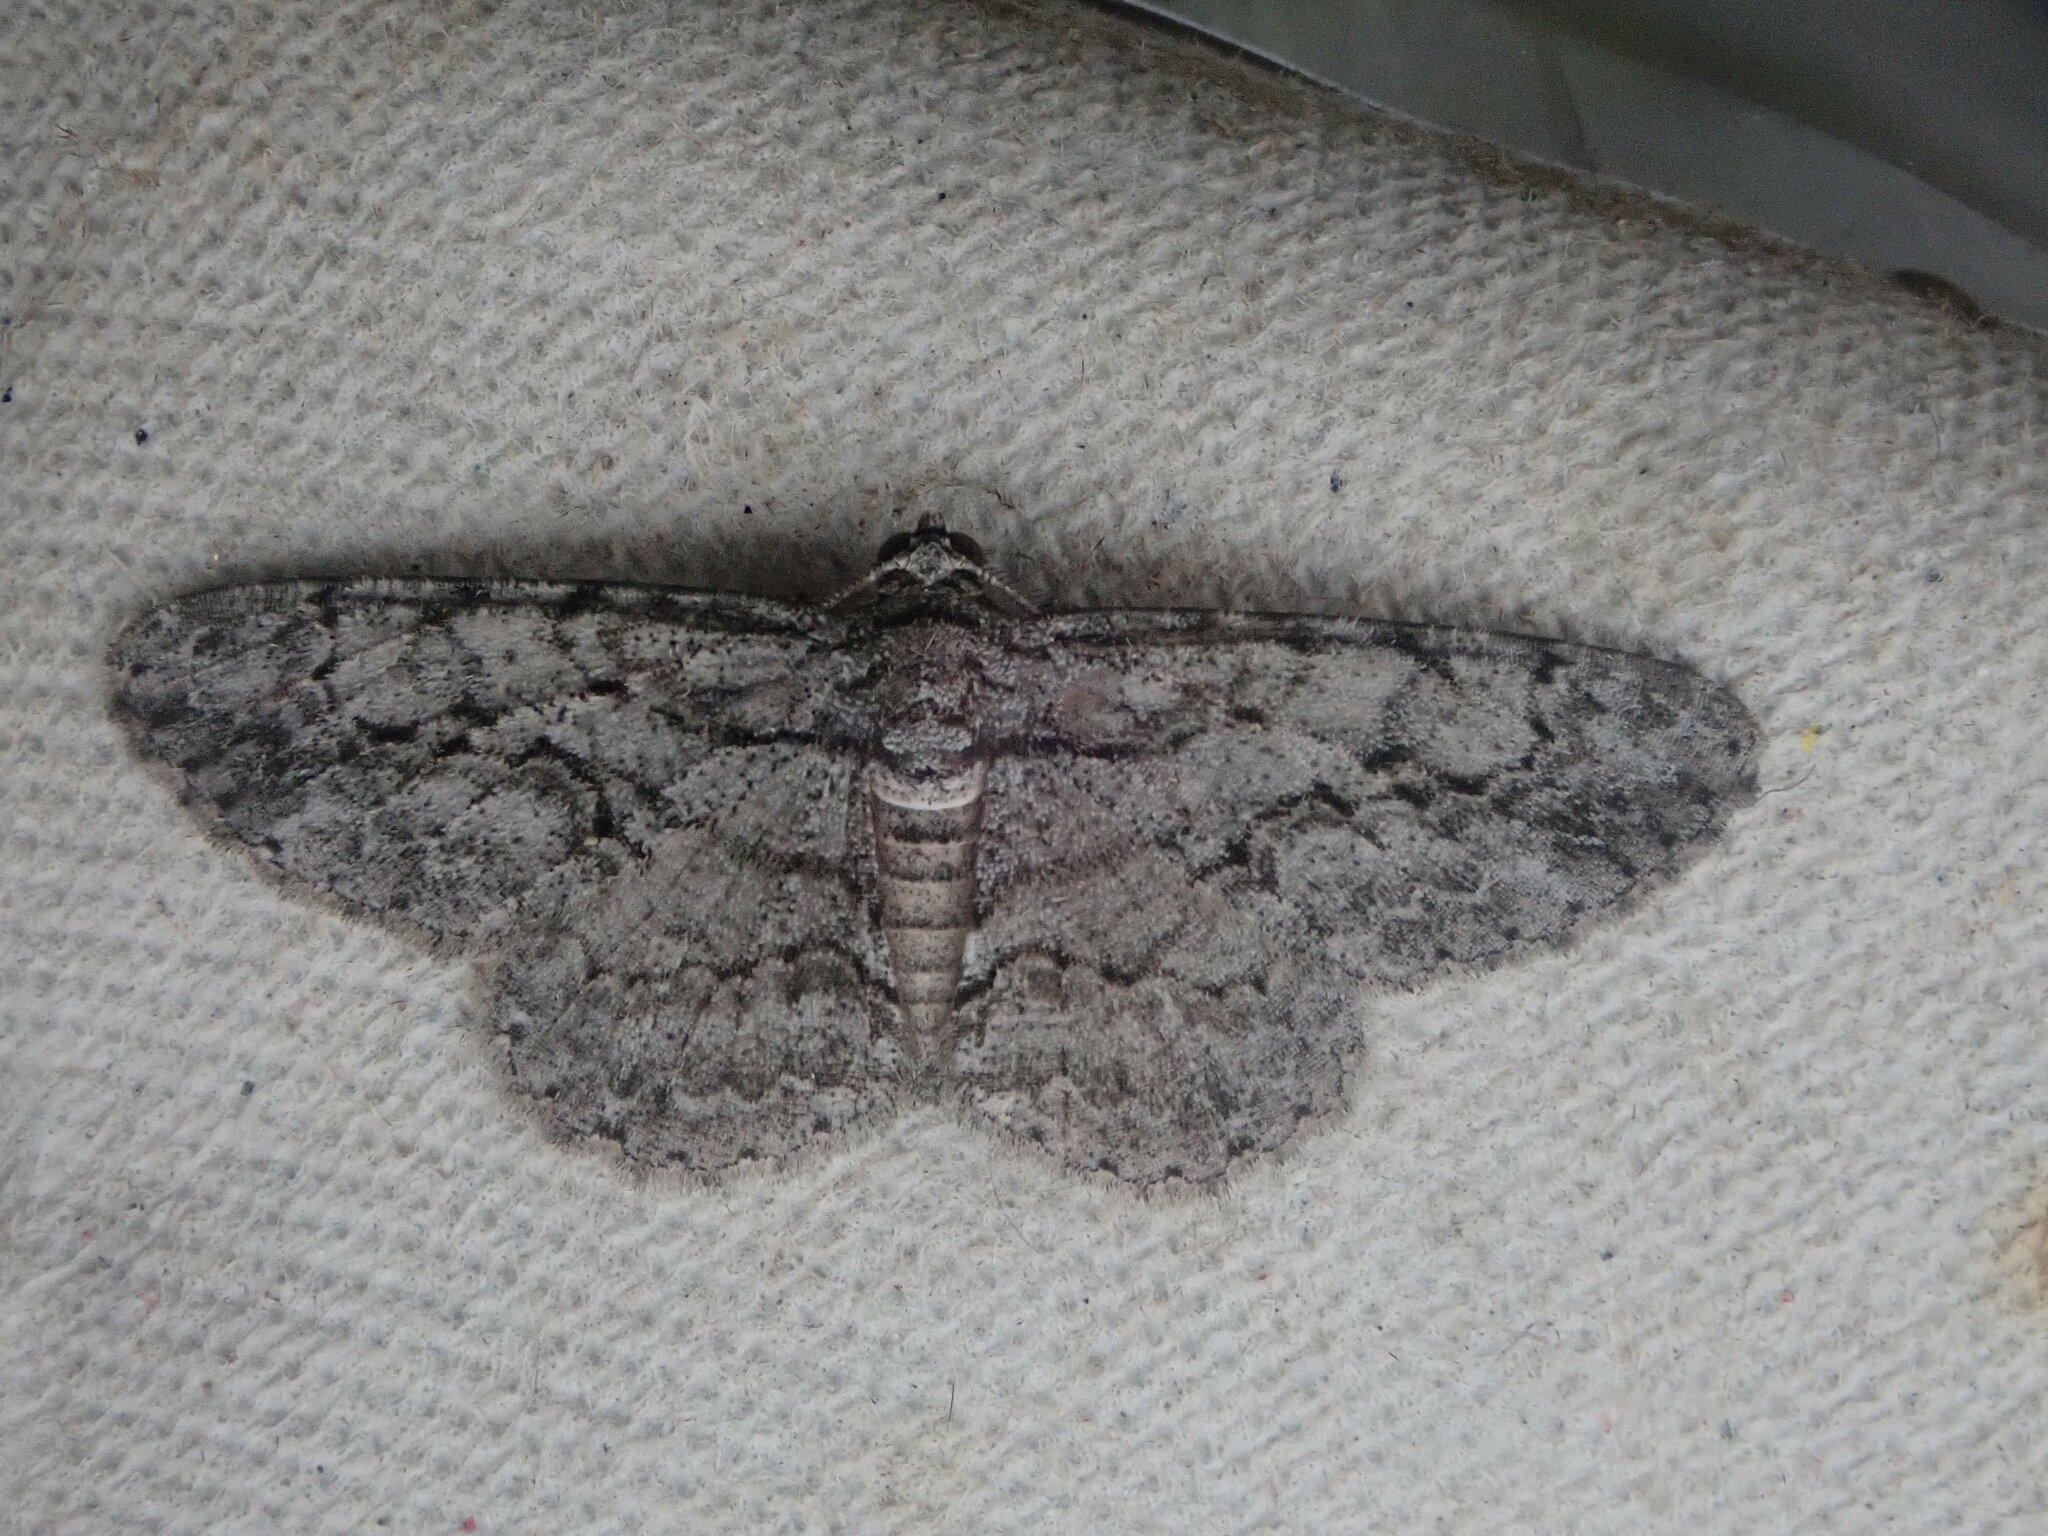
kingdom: Animalia
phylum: Arthropoda
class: Insecta
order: Lepidoptera
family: Geometridae
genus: Anavitrinella
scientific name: Anavitrinella pampinaria
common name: Common gray
